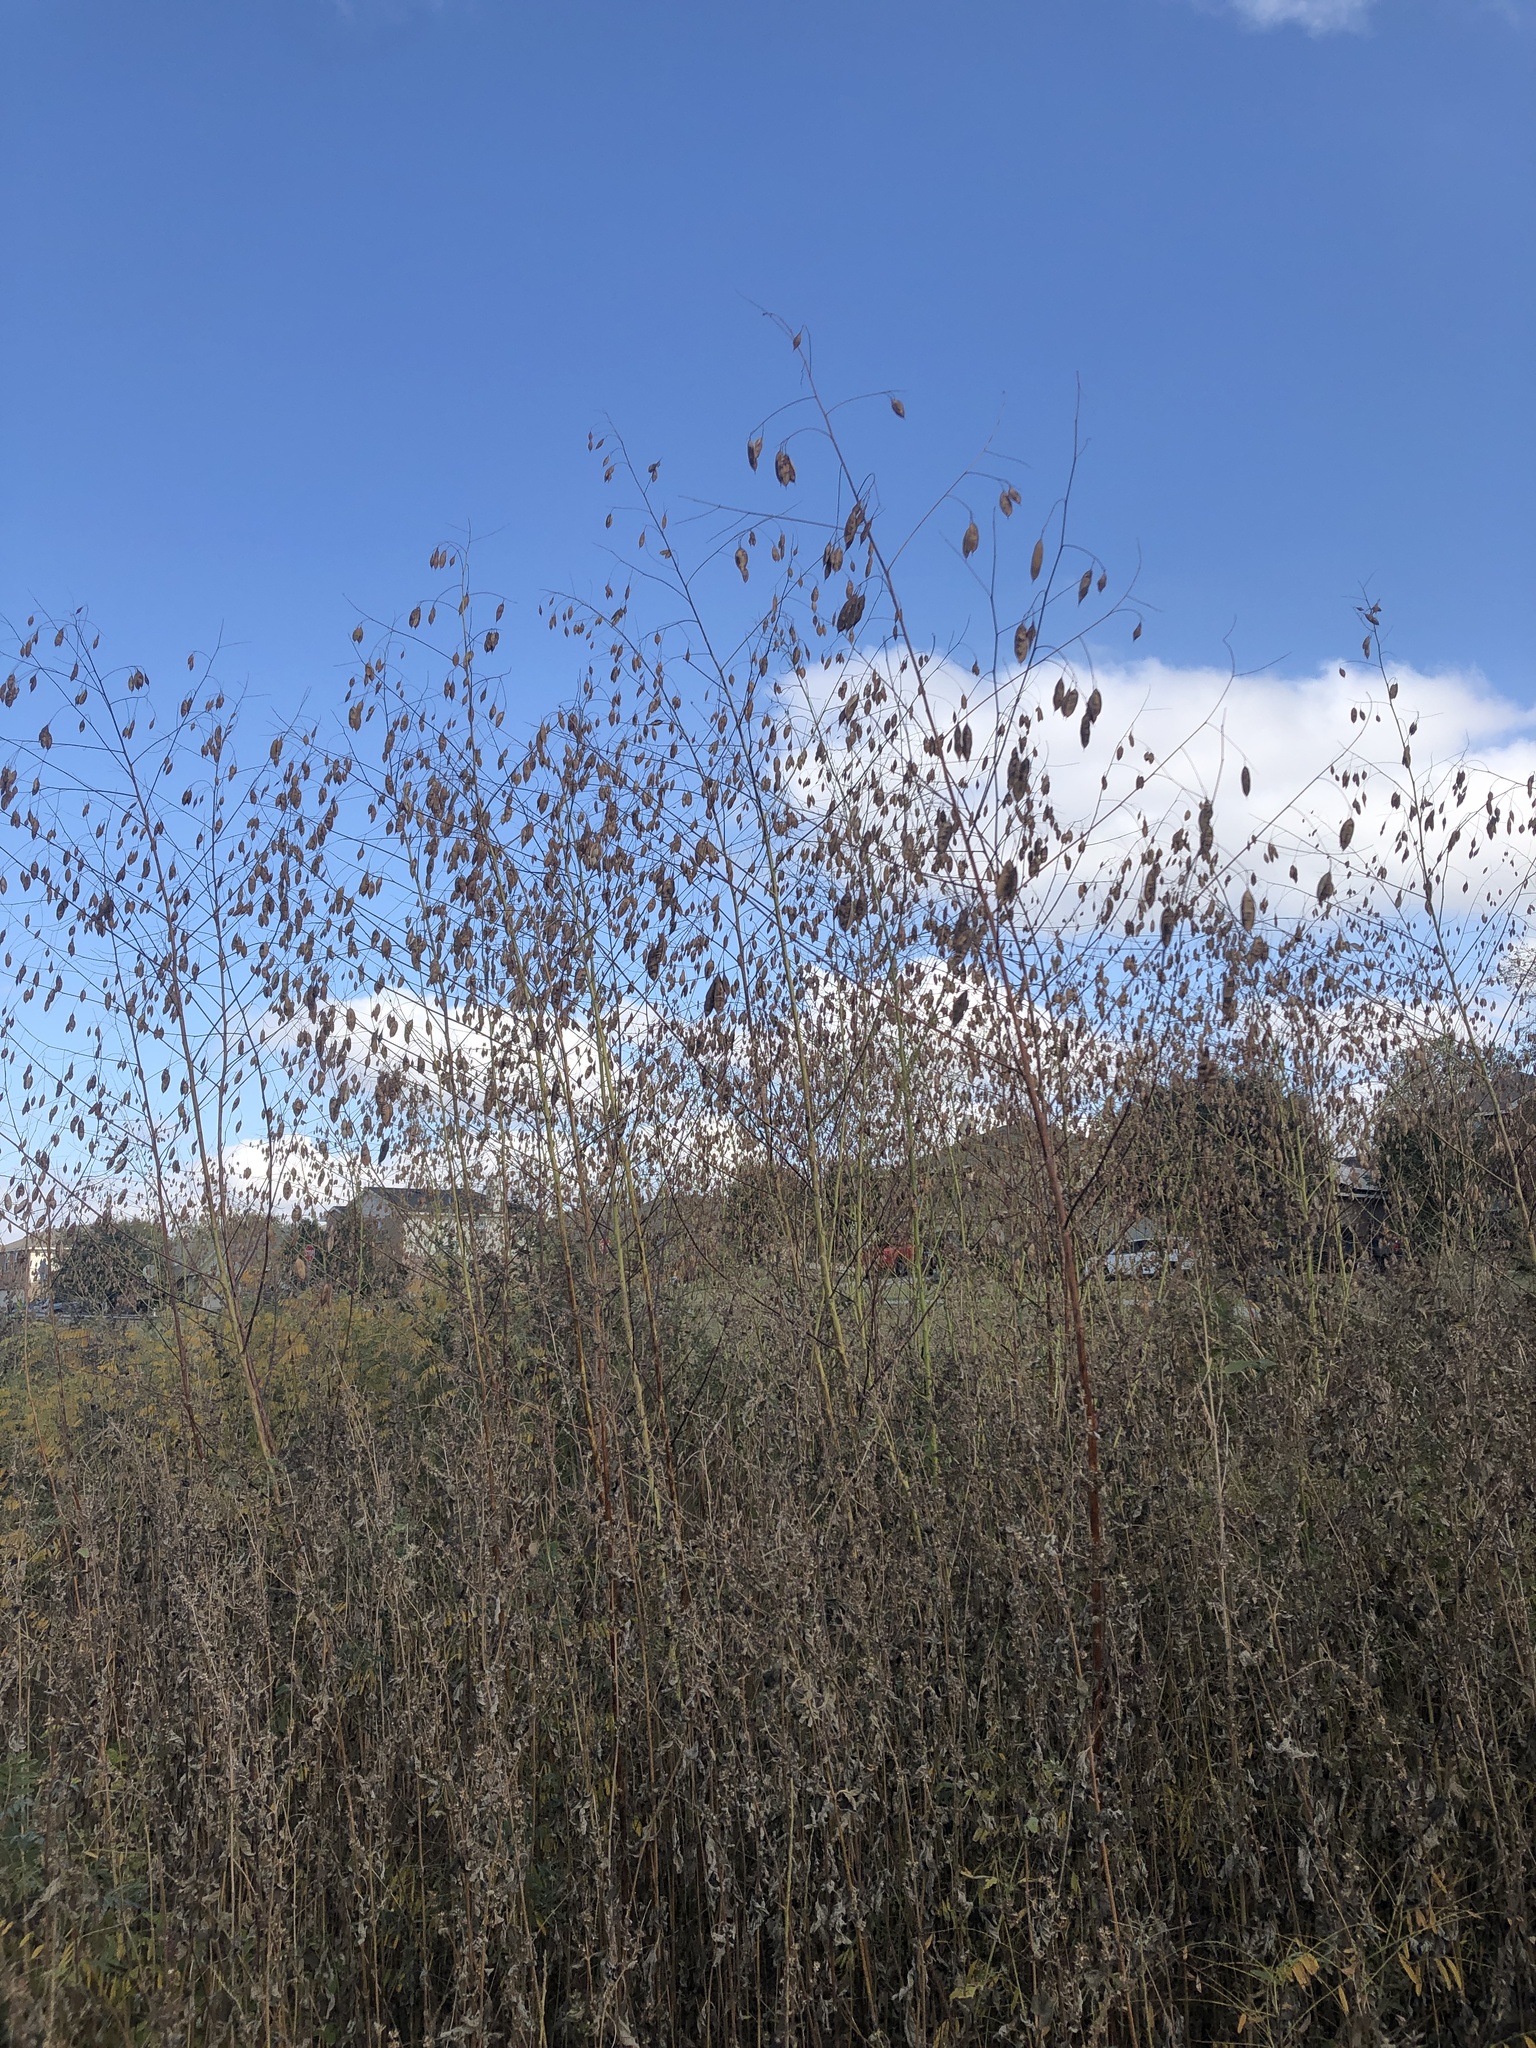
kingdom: Plantae
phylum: Tracheophyta
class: Magnoliopsida
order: Fabales
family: Fabaceae
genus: Sesbania
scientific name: Sesbania vesicaria
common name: Bagpod
